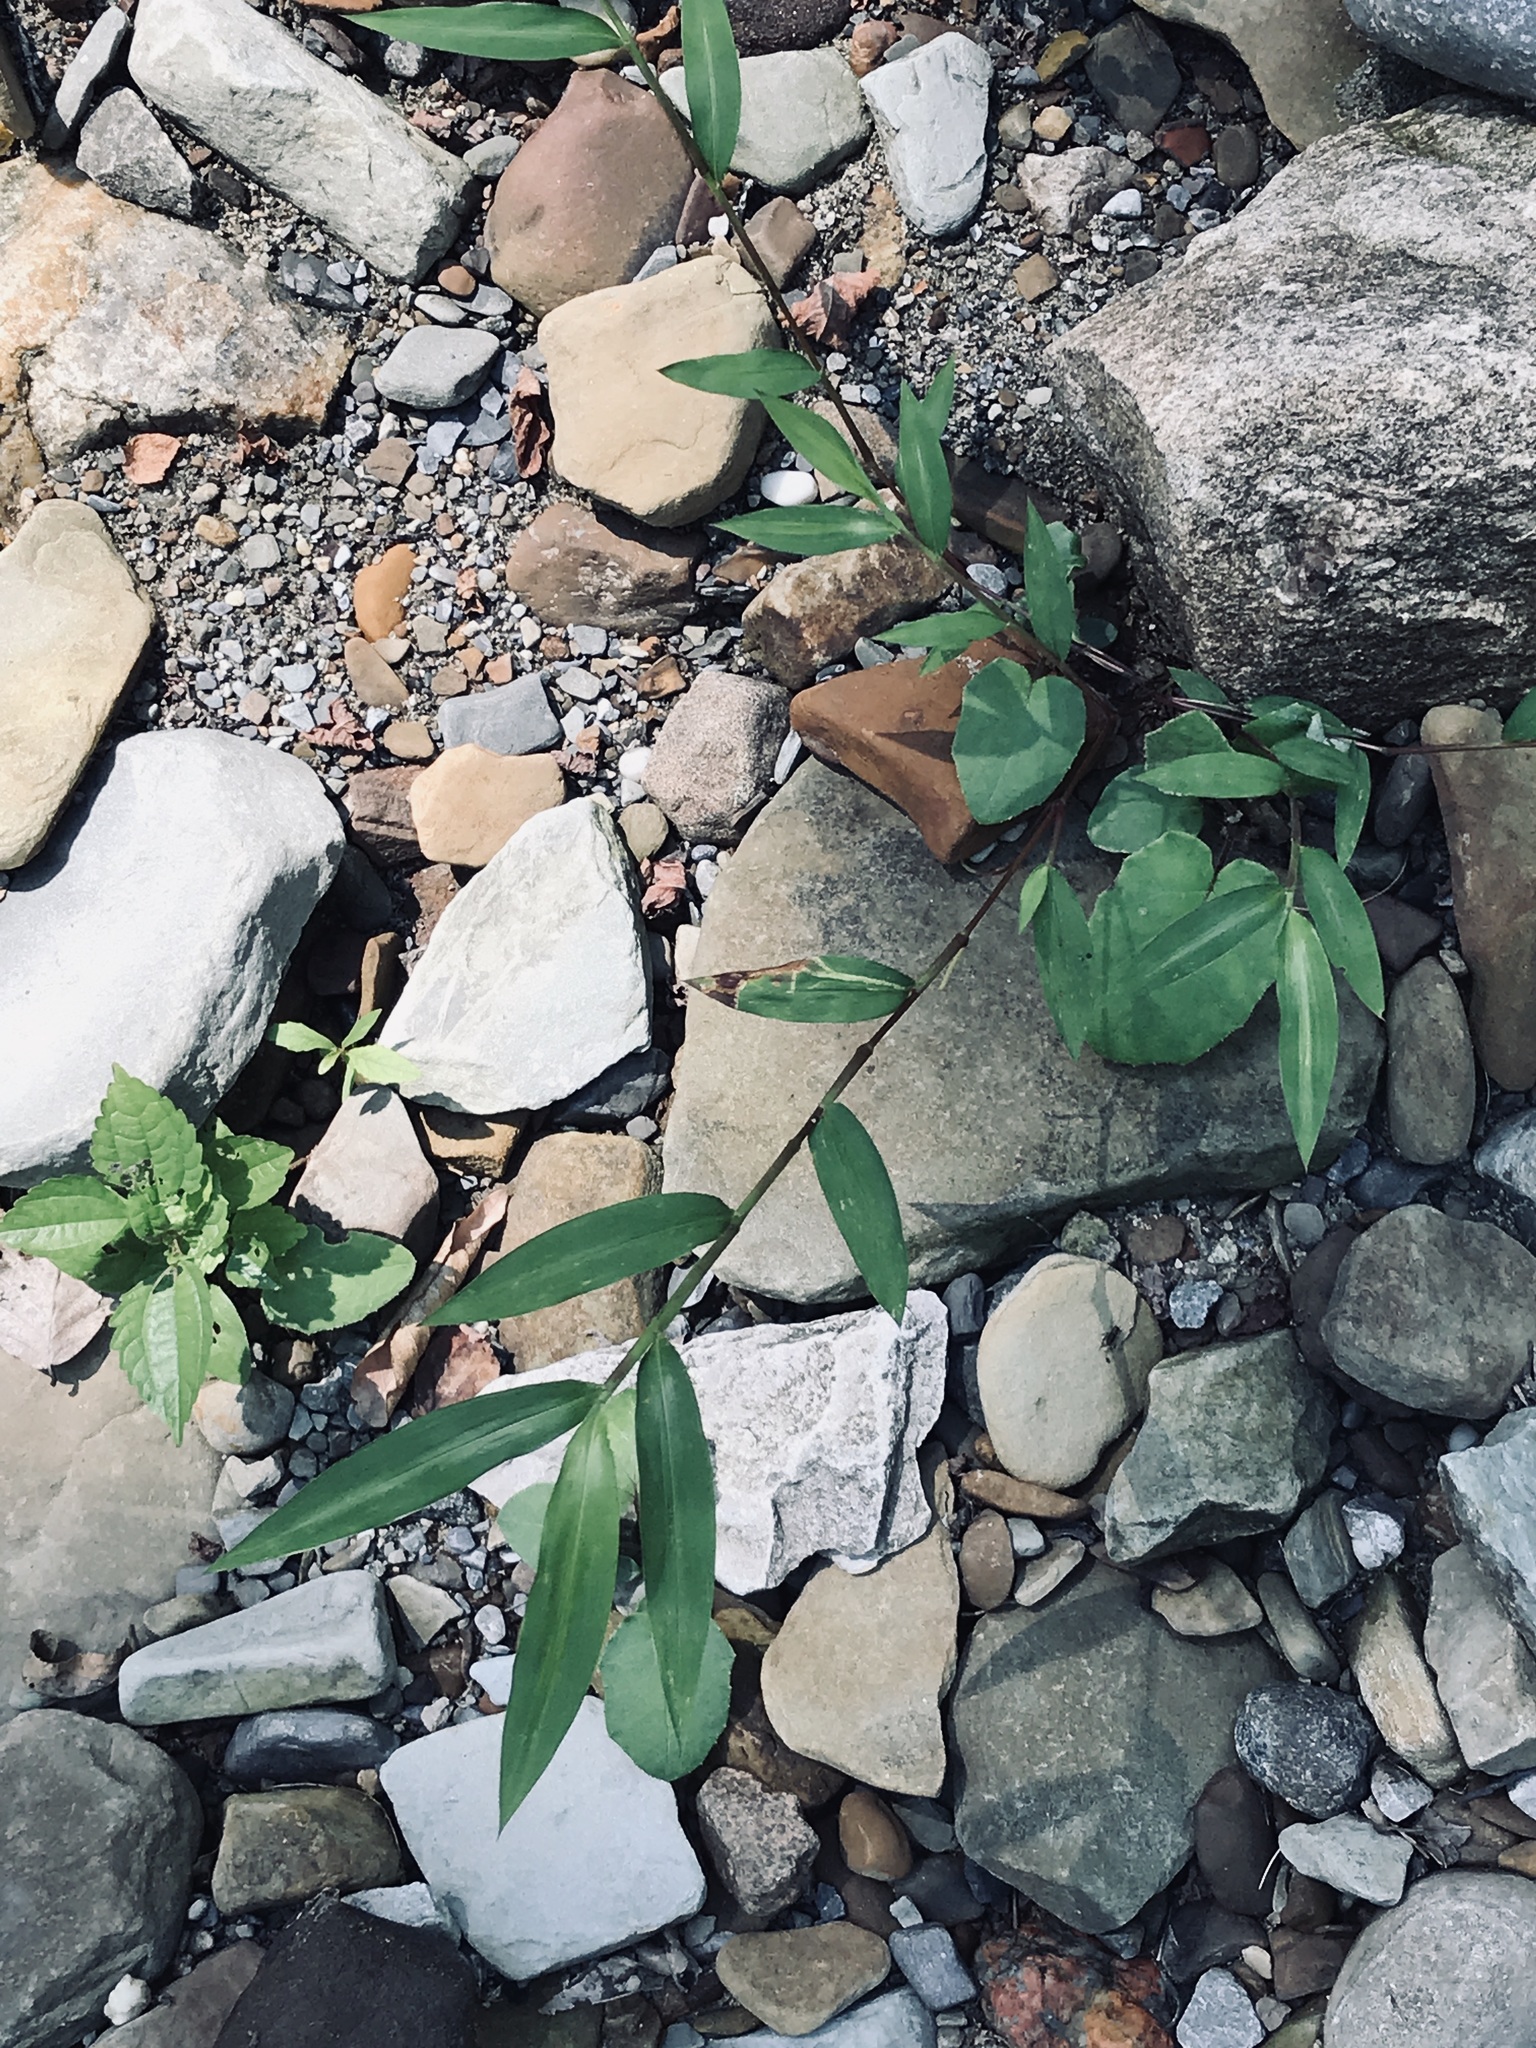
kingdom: Plantae
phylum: Tracheophyta
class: Liliopsida
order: Poales
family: Poaceae
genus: Microstegium
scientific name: Microstegium vimineum
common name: Japanese stiltgrass
